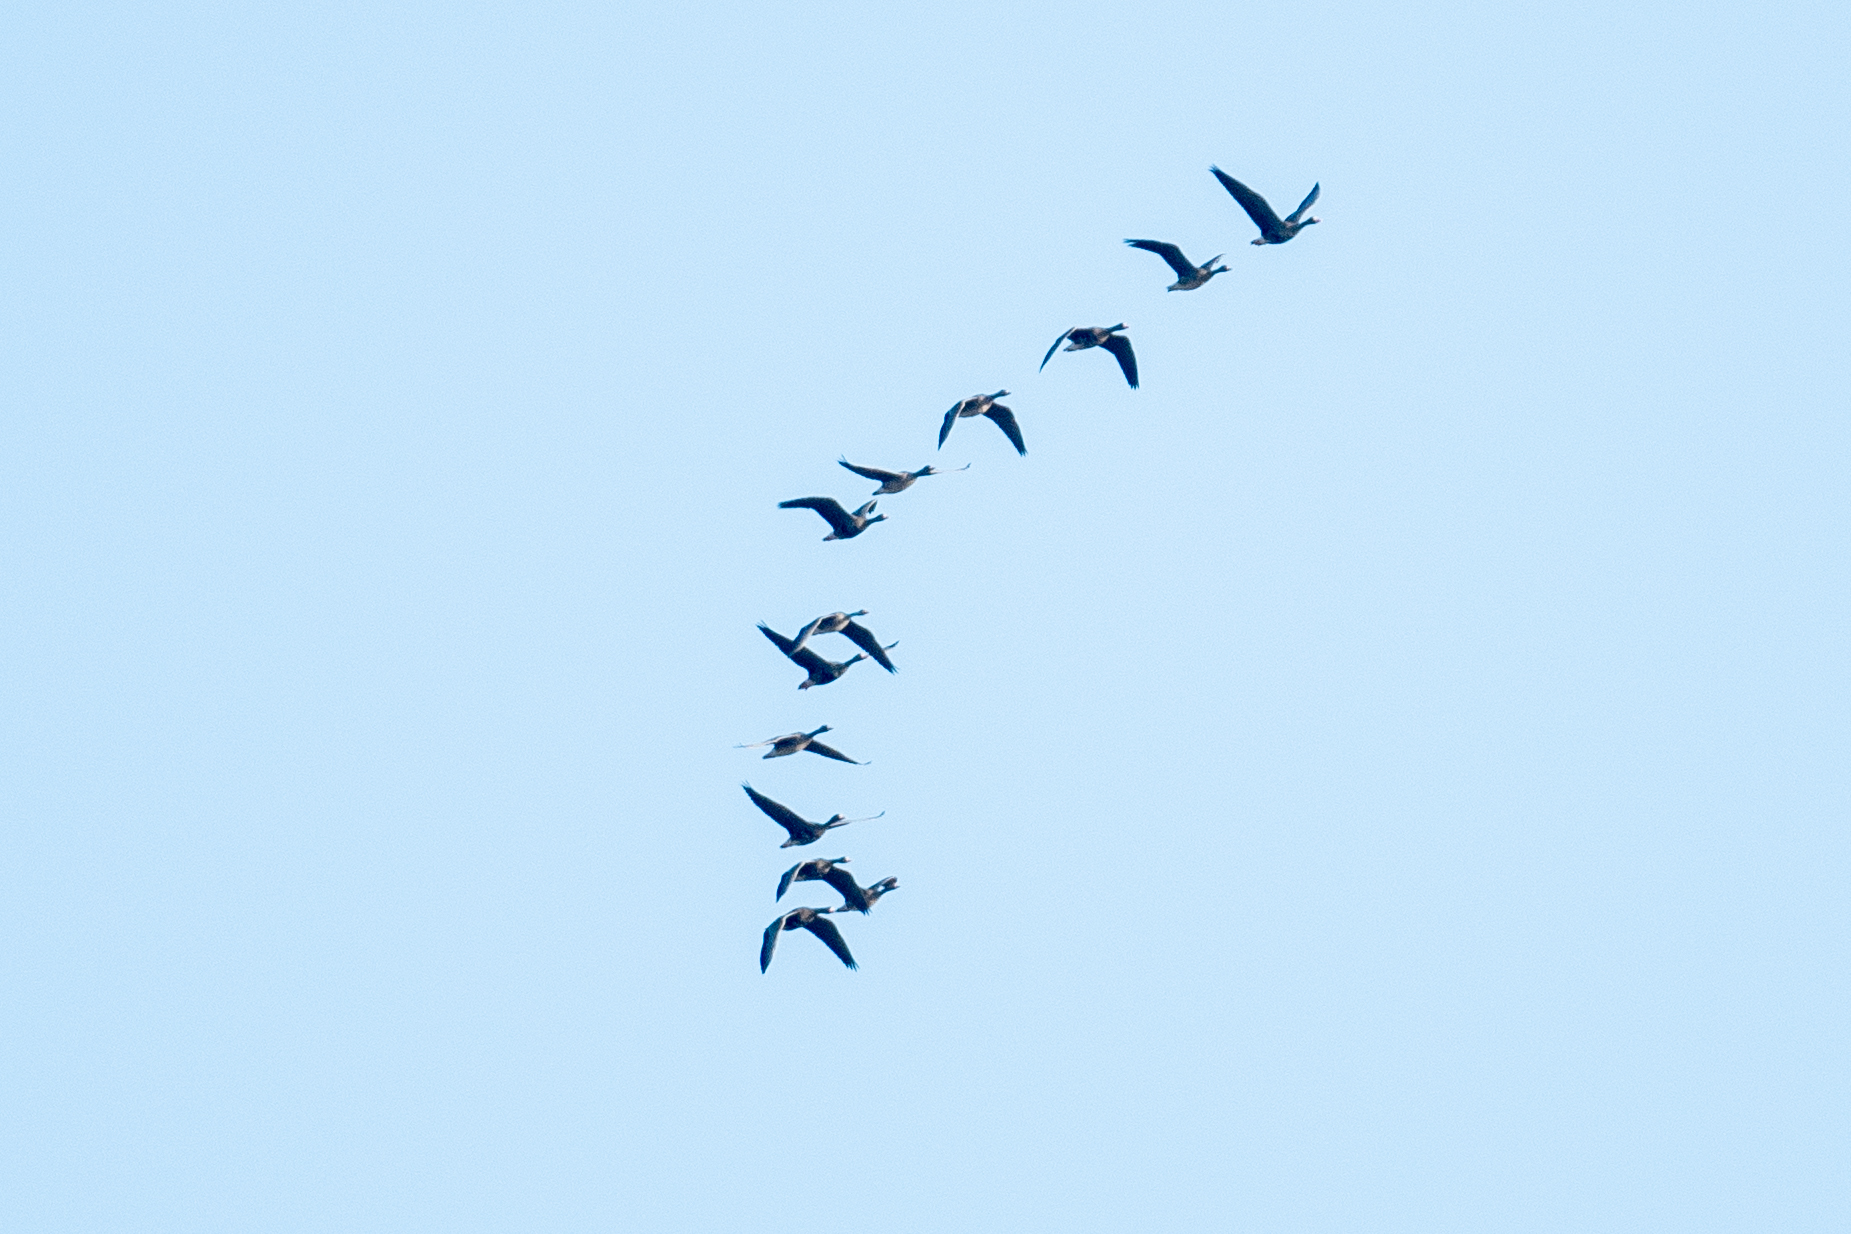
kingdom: Animalia
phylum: Chordata
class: Aves
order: Anseriformes
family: Anatidae
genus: Anser
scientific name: Anser albifrons
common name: Greater white-fronted goose
